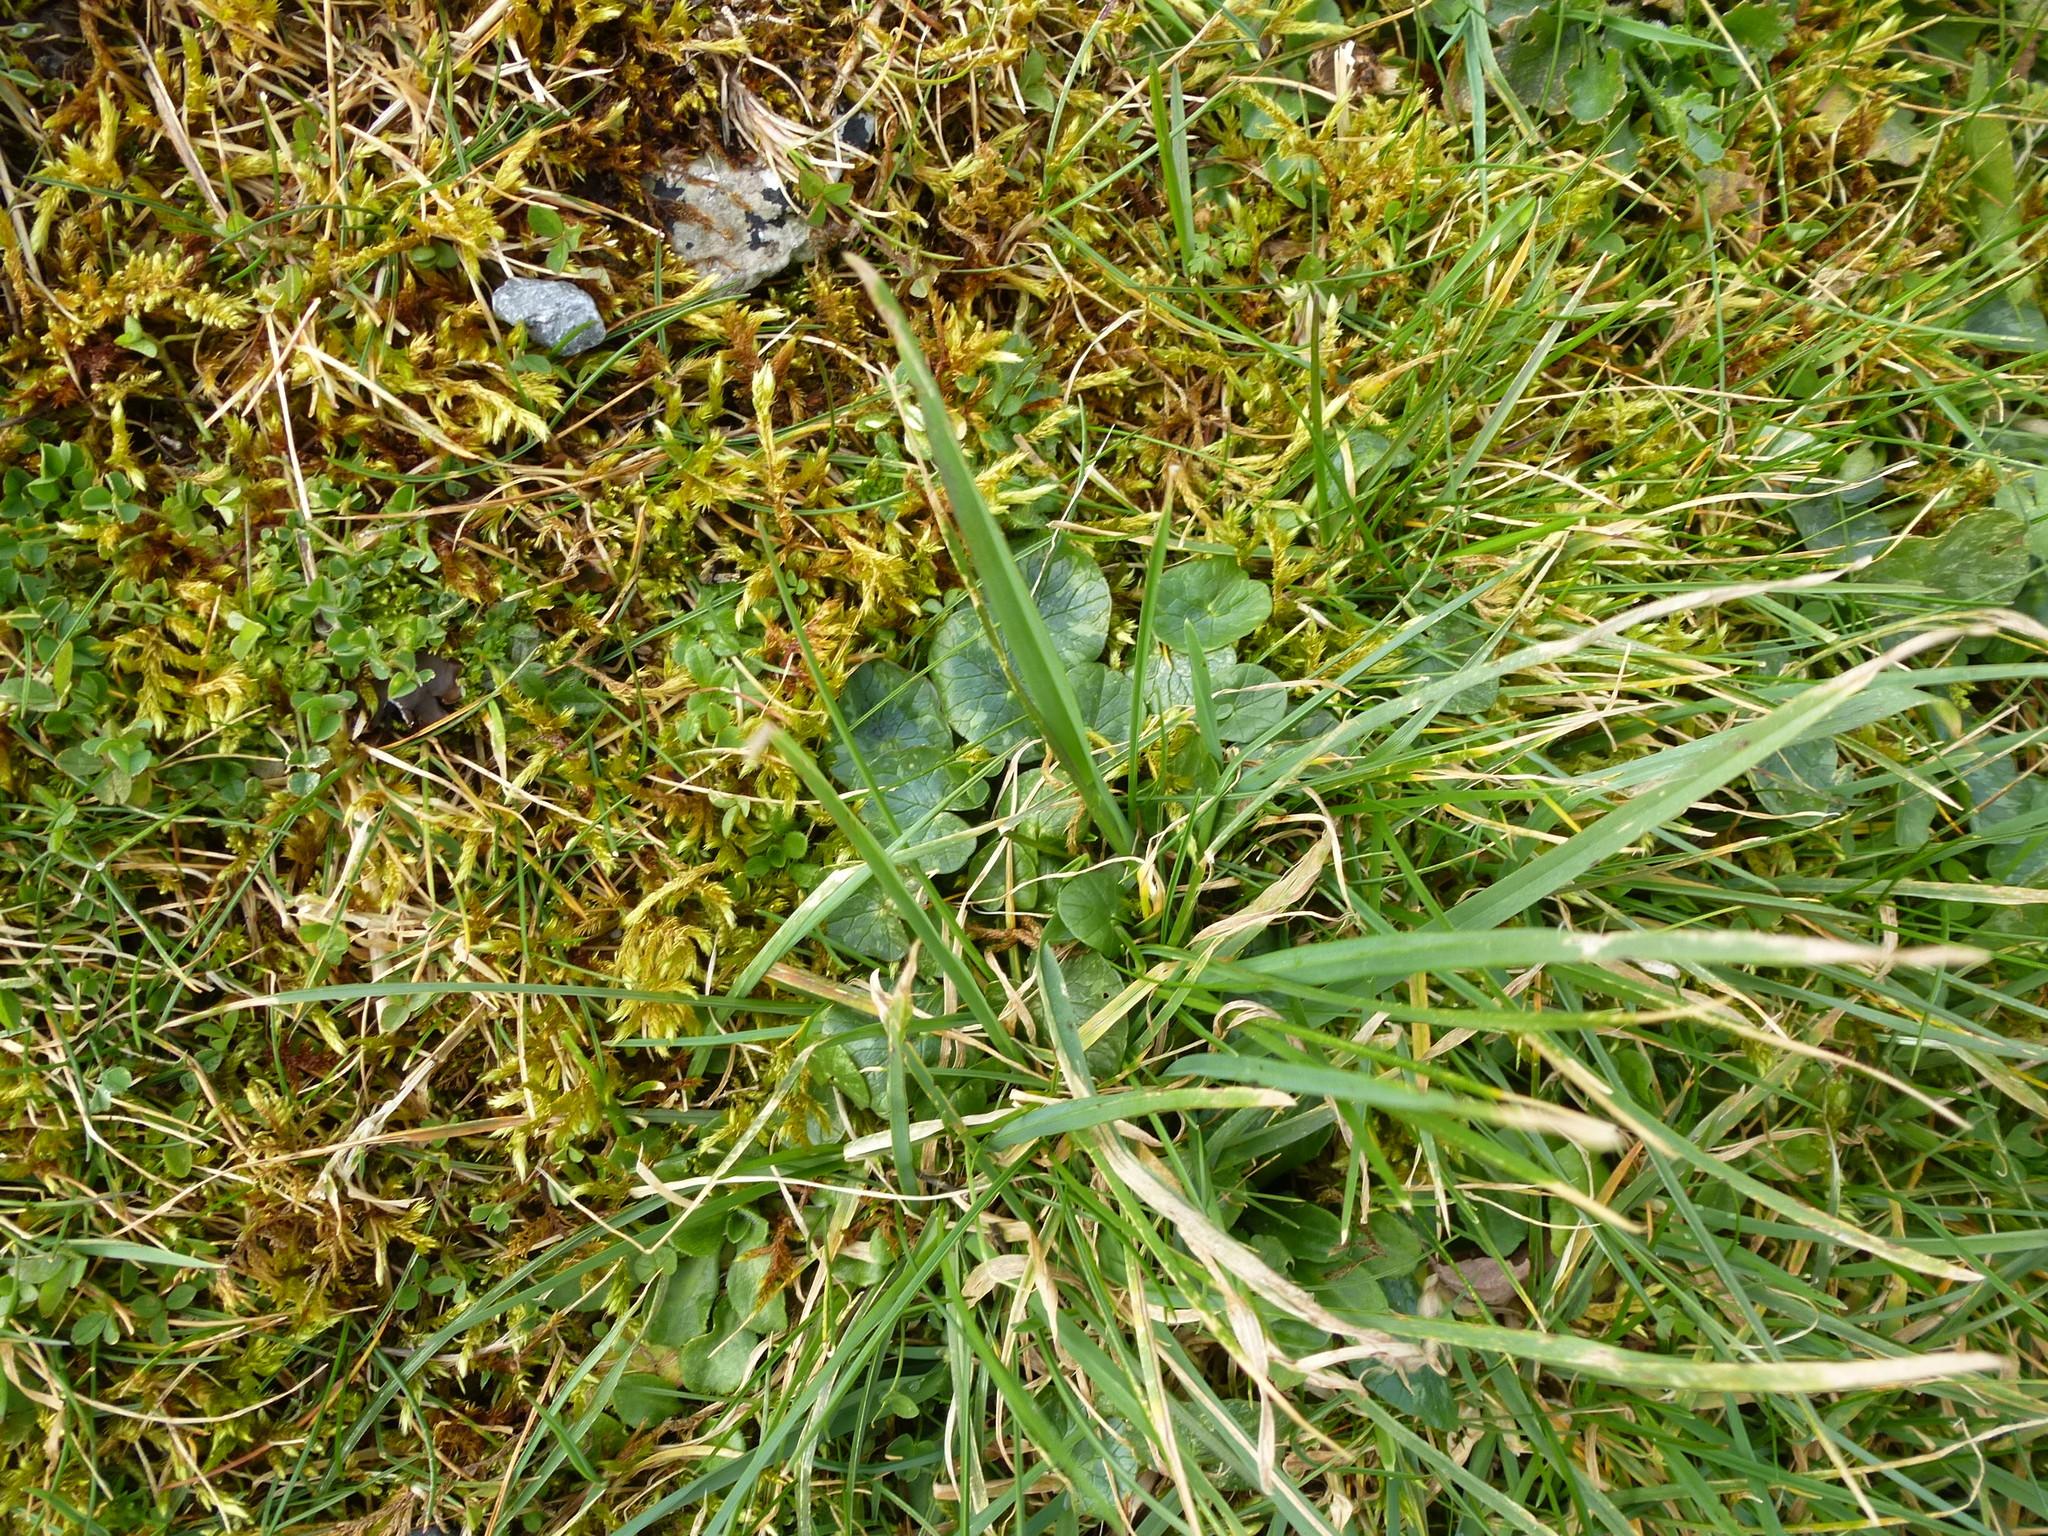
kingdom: Plantae
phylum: Tracheophyta
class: Magnoliopsida
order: Ranunculales
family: Ranunculaceae
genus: Ficaria
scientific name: Ficaria verna
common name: Lesser celandine
